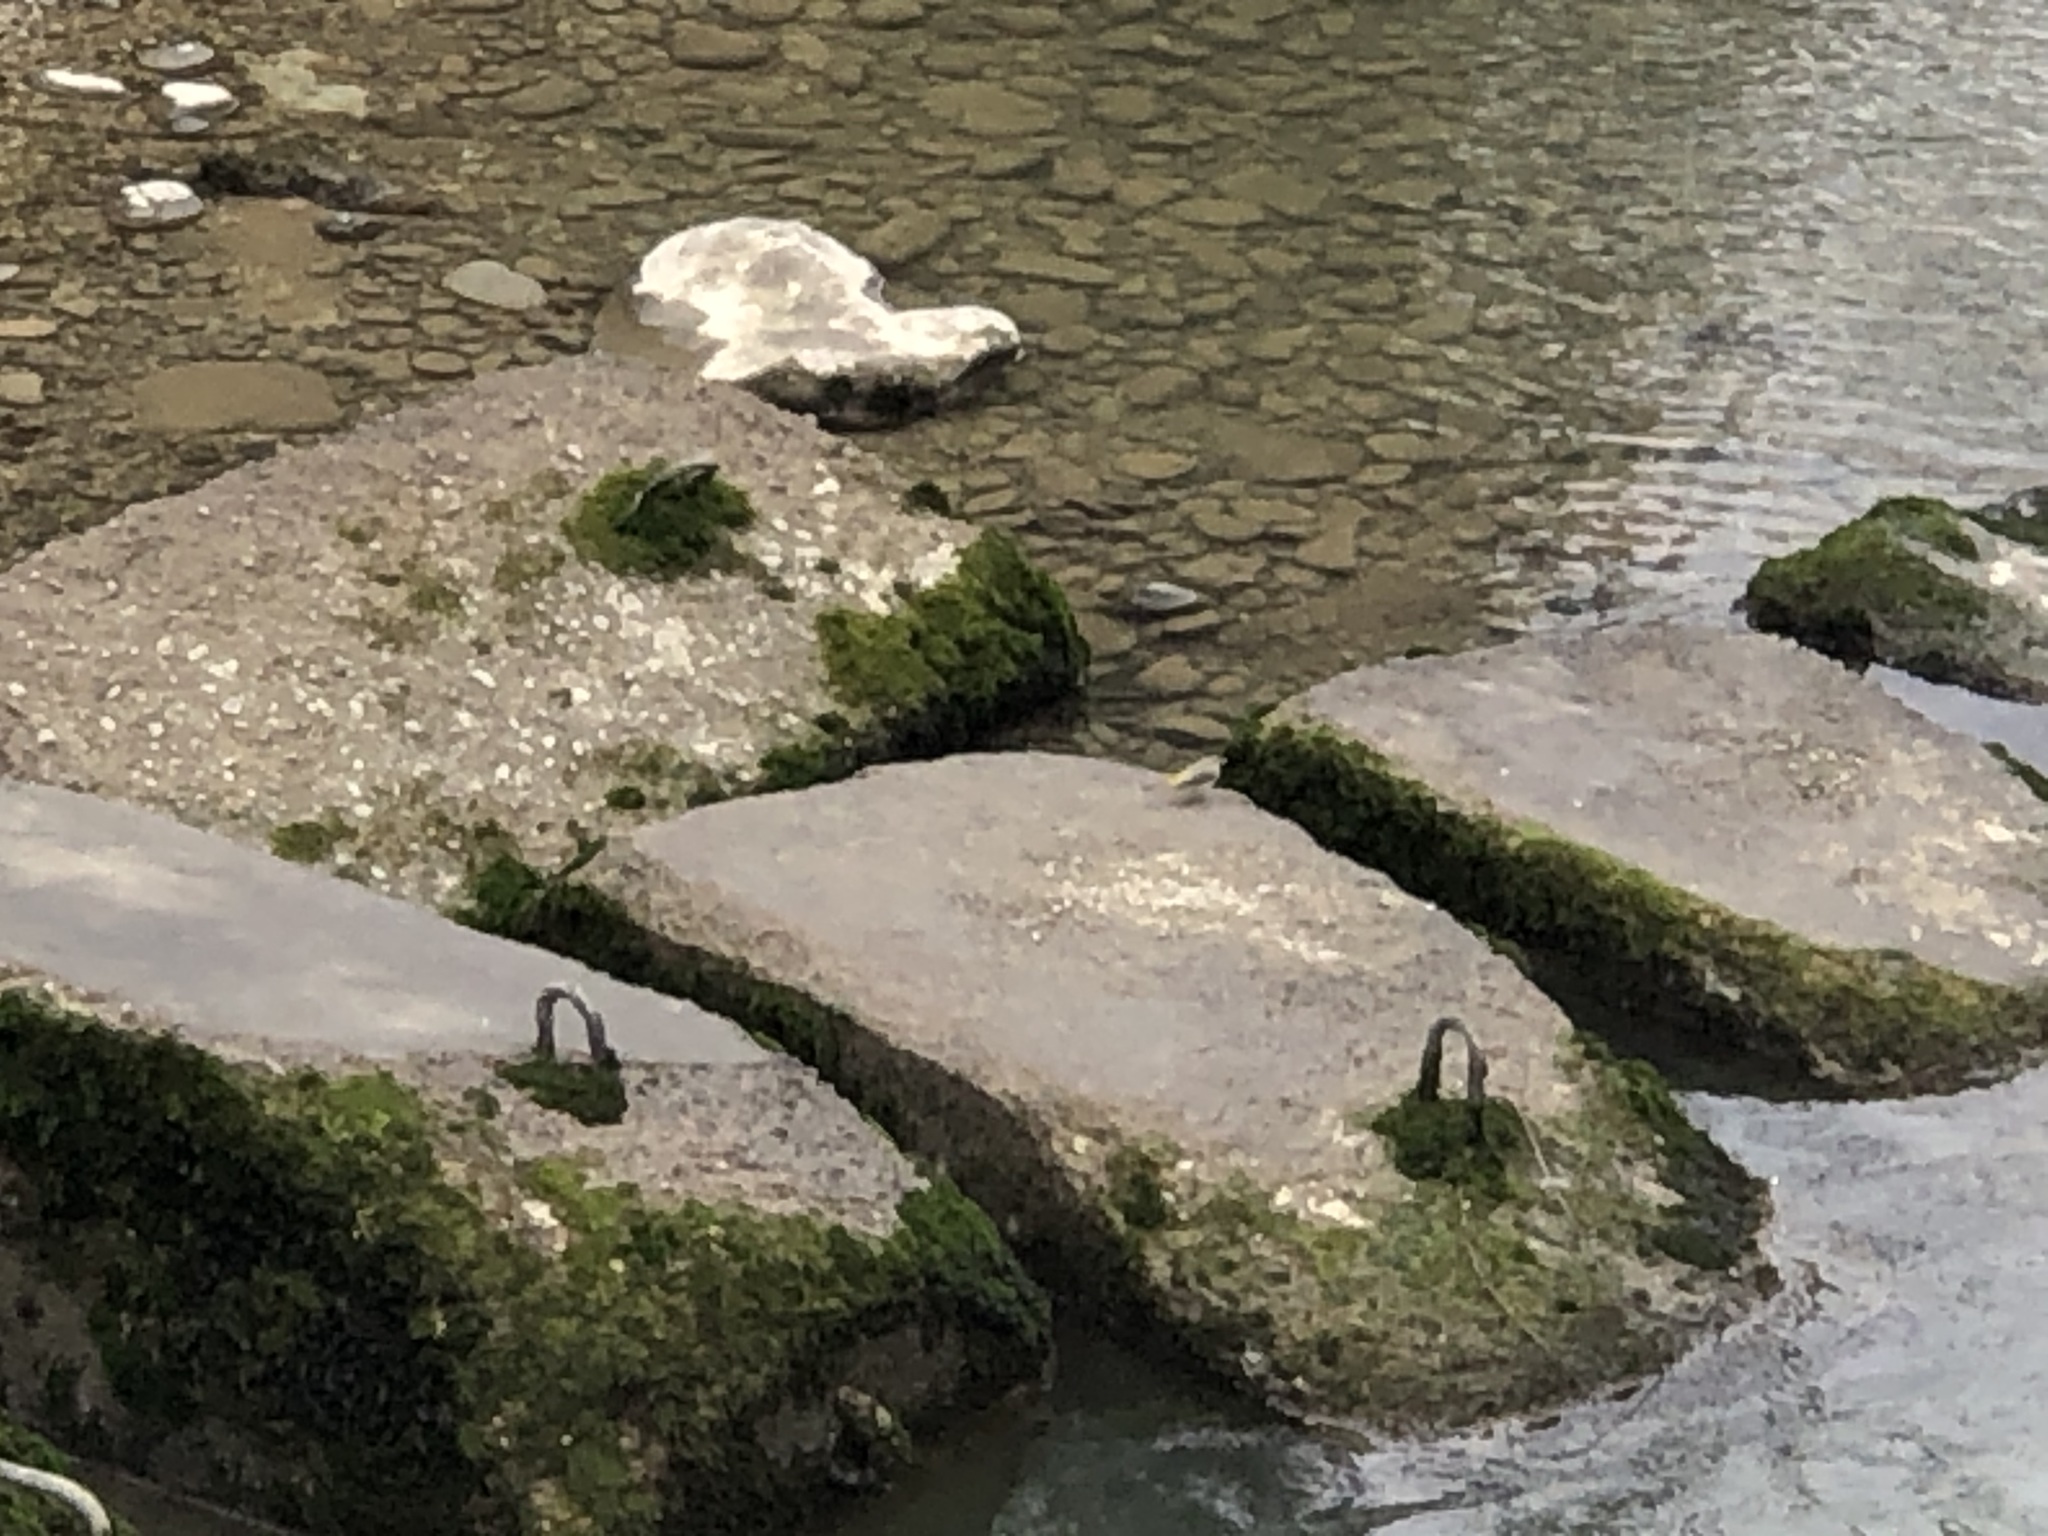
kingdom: Animalia
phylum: Chordata
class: Aves
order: Passeriformes
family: Motacillidae
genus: Motacilla
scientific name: Motacilla cinerea
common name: Grey wagtail
